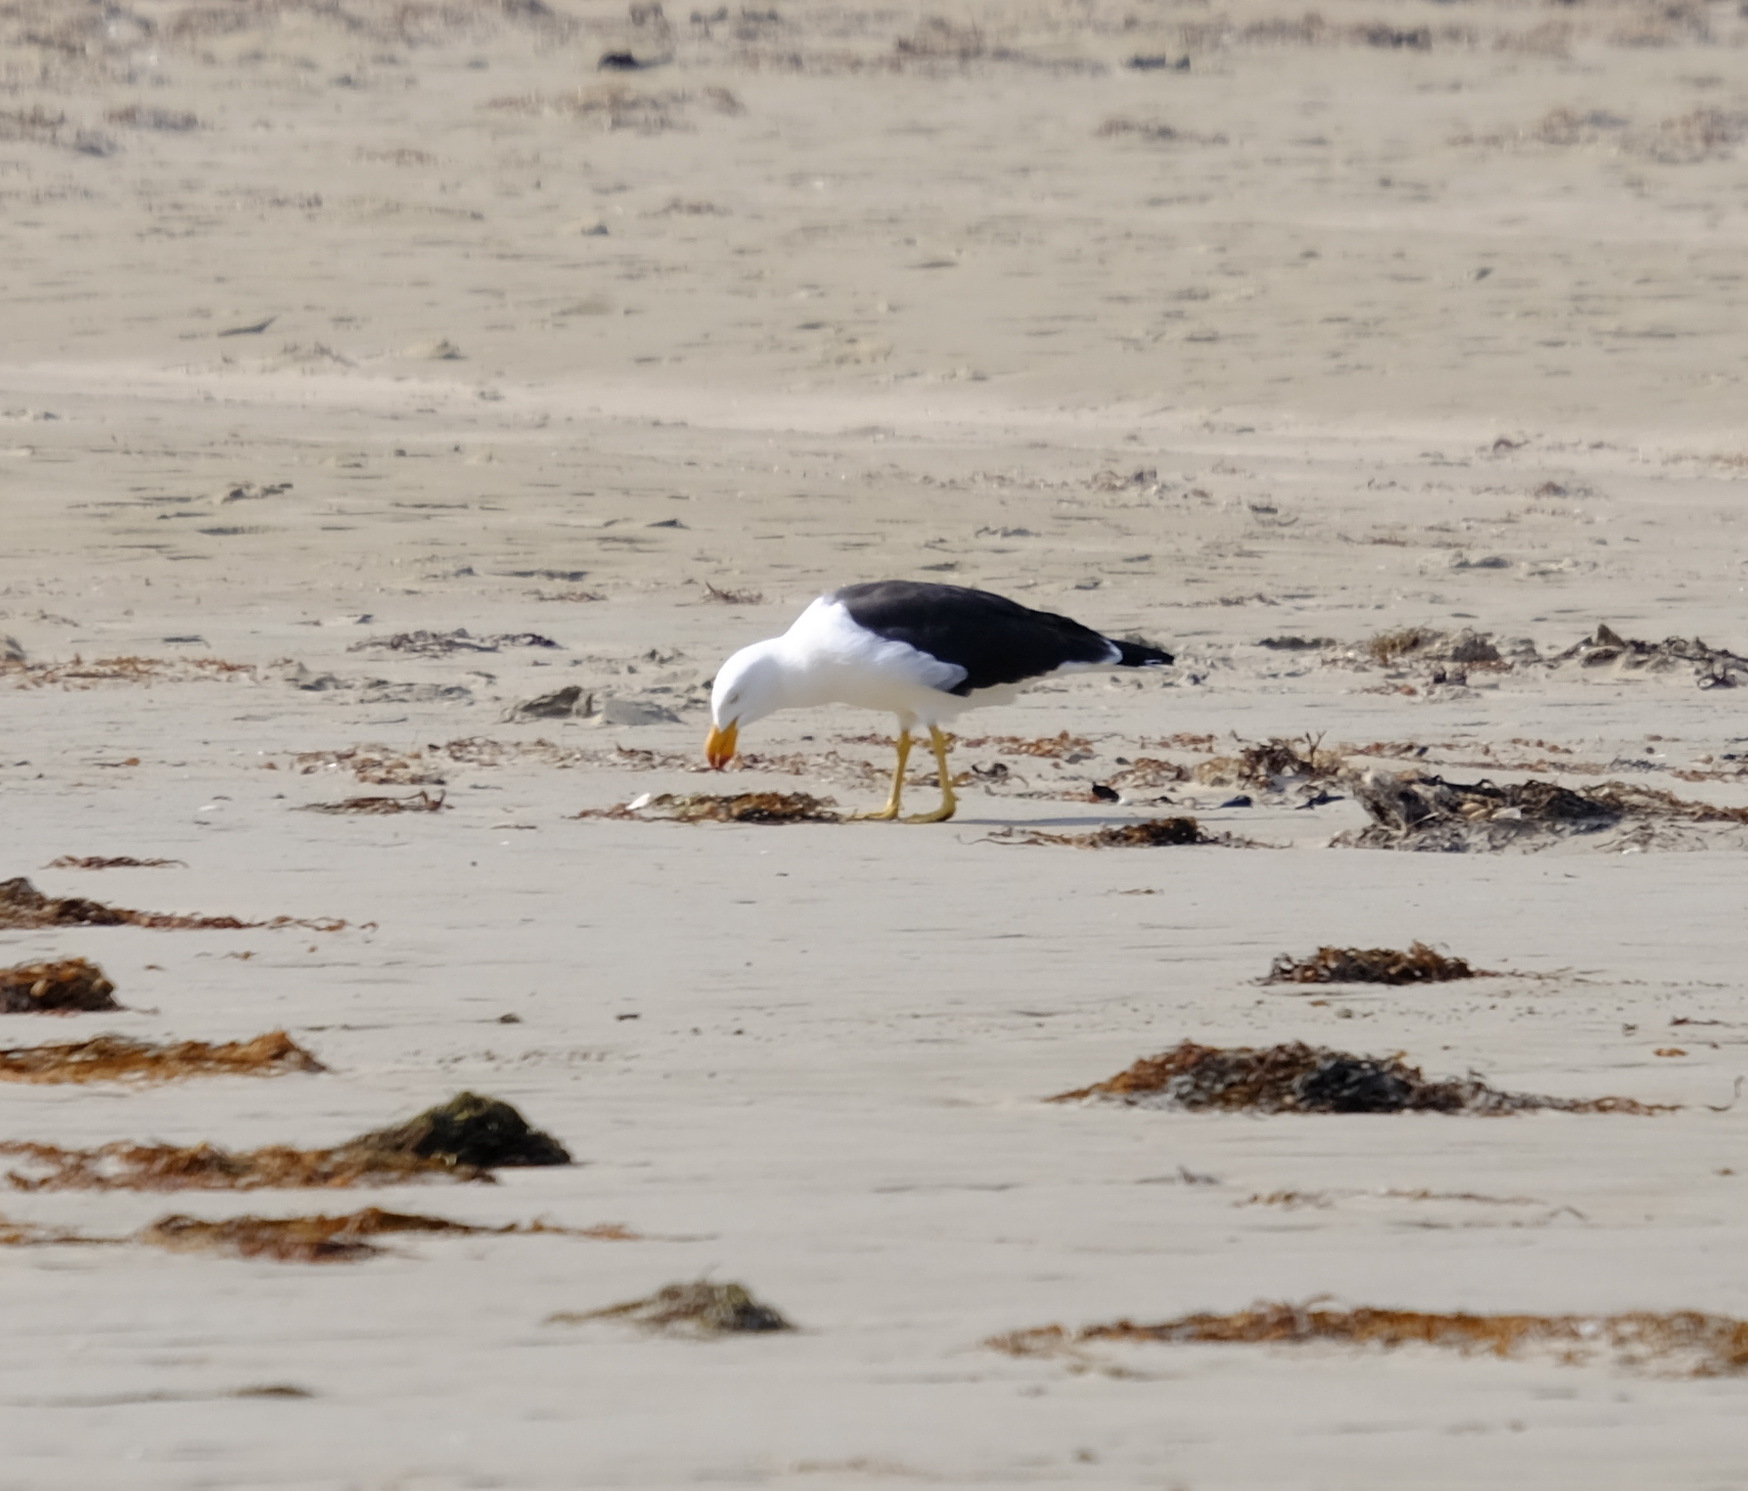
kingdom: Animalia
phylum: Chordata
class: Aves
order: Charadriiformes
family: Laridae
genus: Larus
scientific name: Larus pacificus
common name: Pacific gull
